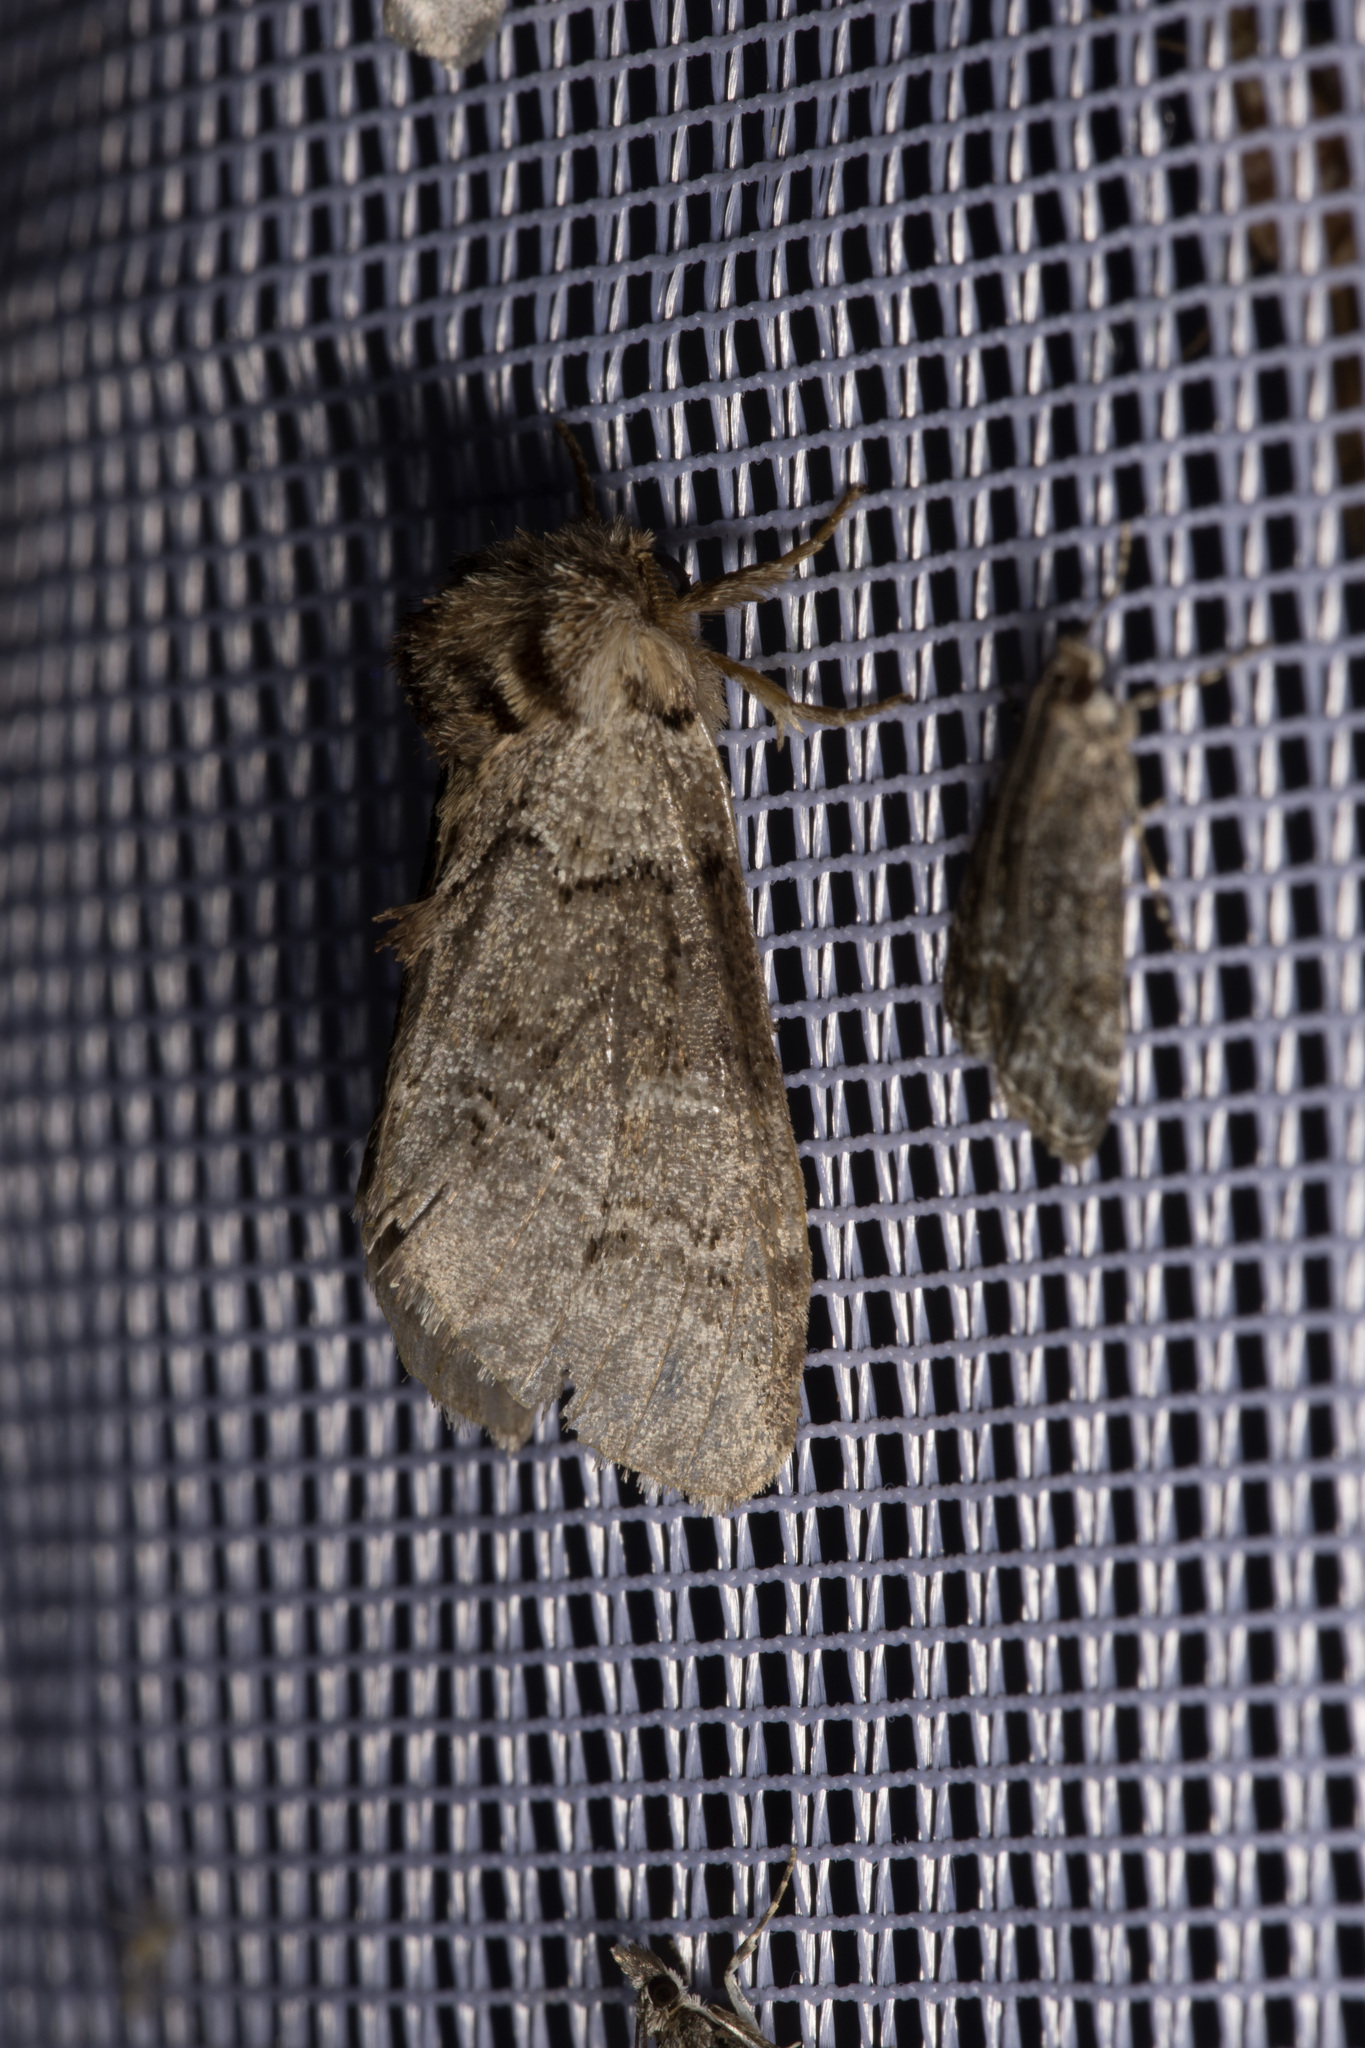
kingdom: Animalia
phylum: Arthropoda
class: Insecta
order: Lepidoptera
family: Notodontidae
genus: Drymonia
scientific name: Drymonia obliterata
